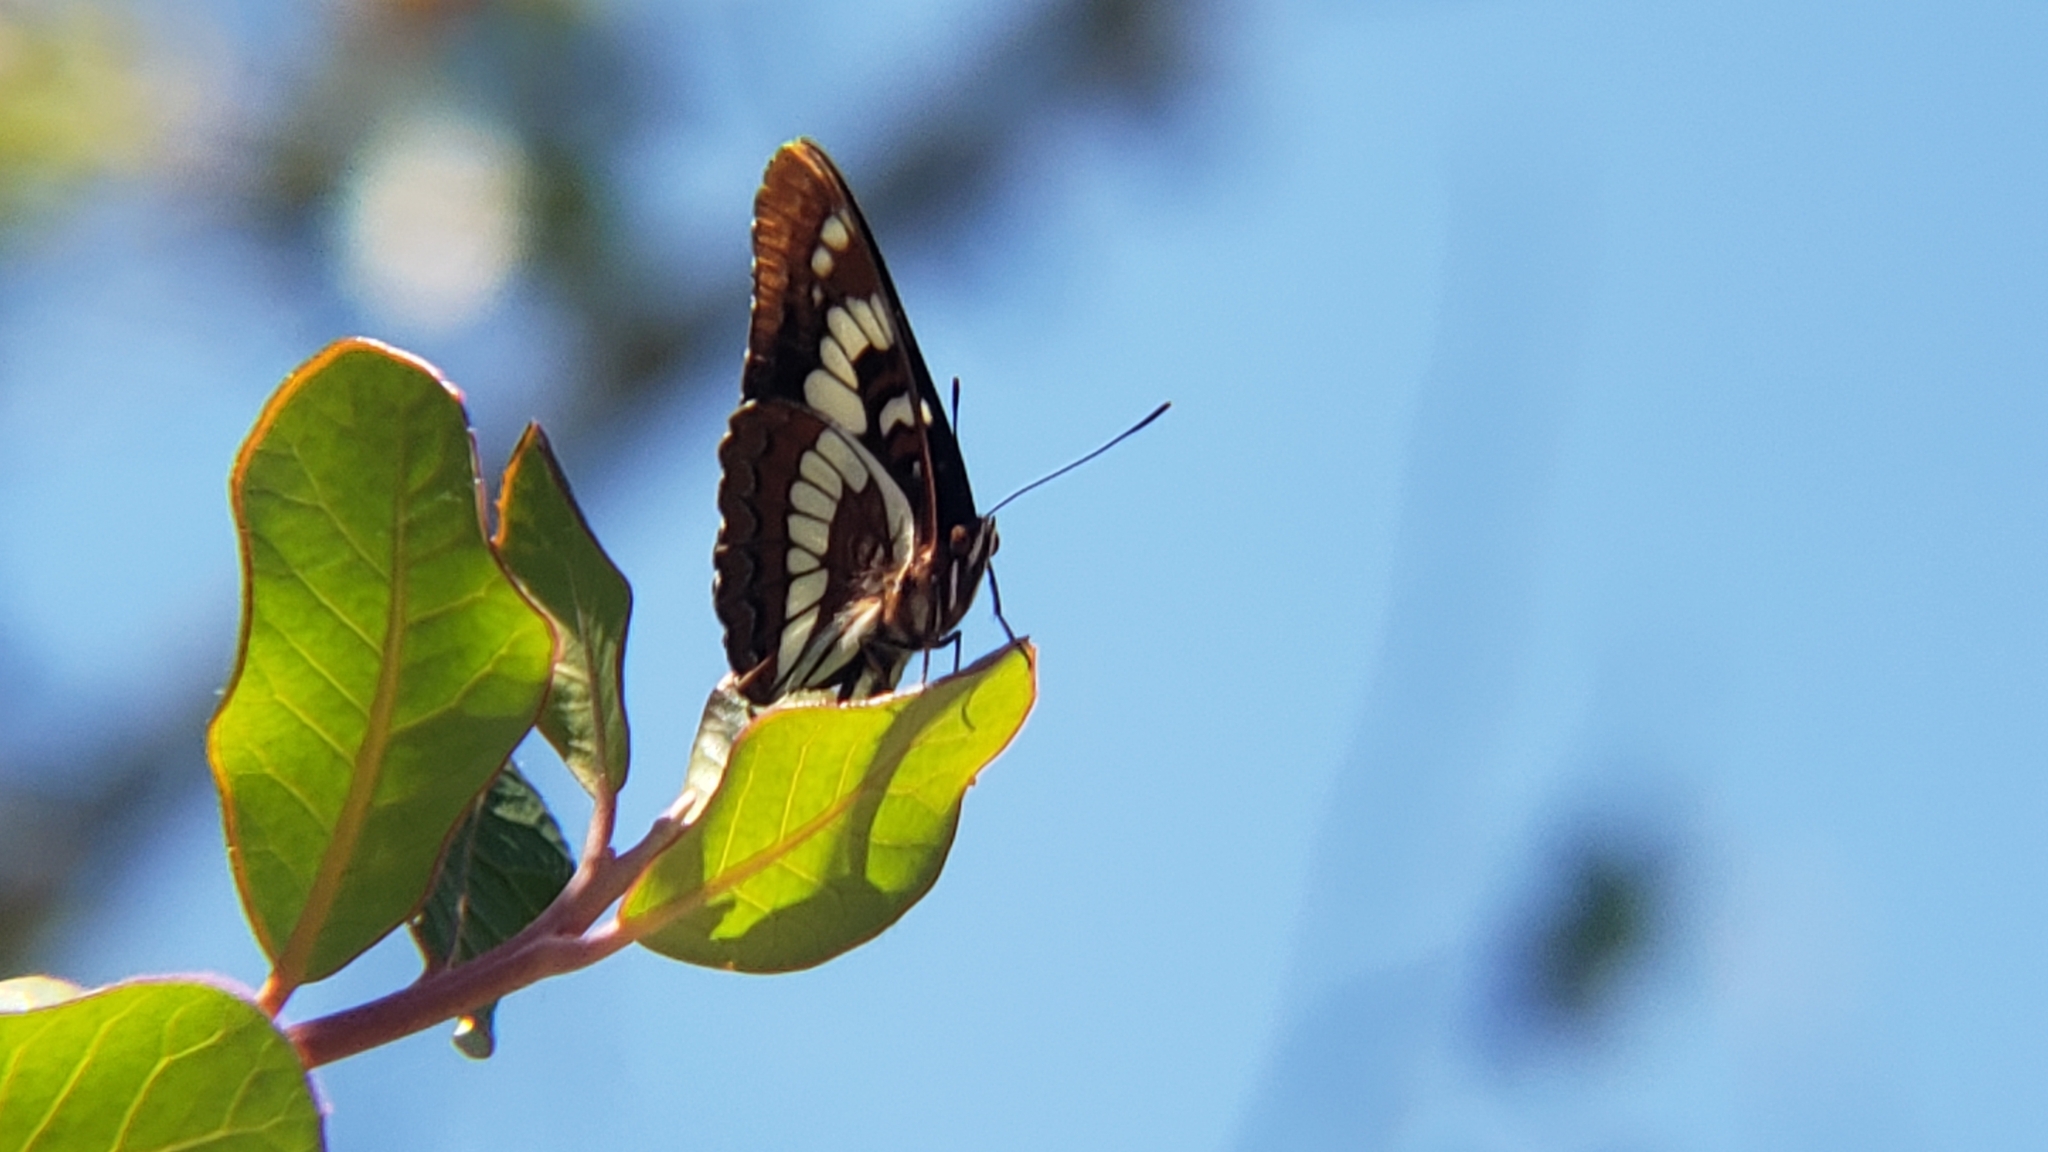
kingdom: Animalia
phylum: Arthropoda
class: Insecta
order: Lepidoptera
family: Nymphalidae
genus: Limenitis
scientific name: Limenitis lorquini
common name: Lorquin's admiral
